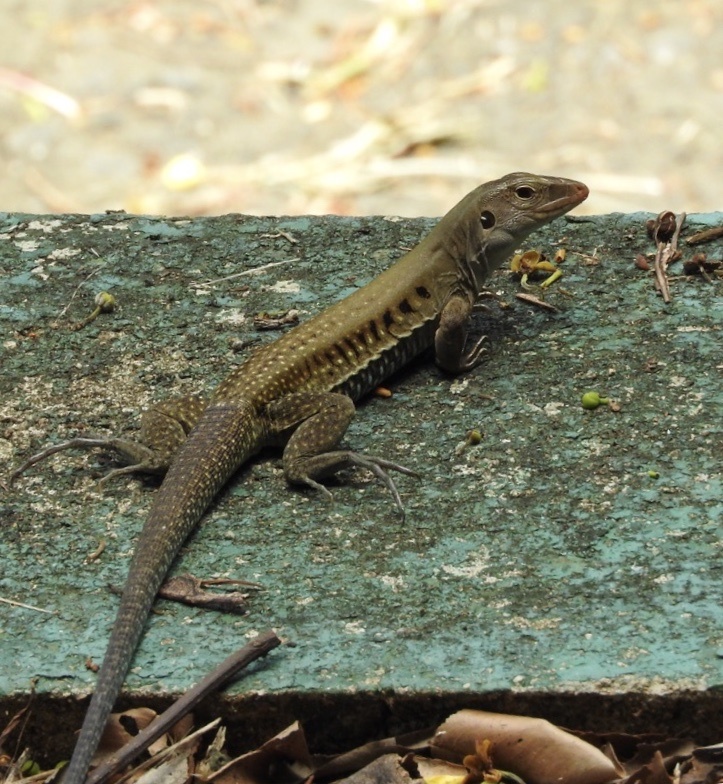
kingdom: Animalia
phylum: Chordata
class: Squamata
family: Teiidae
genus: Pholidoscelis
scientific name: Pholidoscelis exsul
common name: Common puerto rican ameiva
